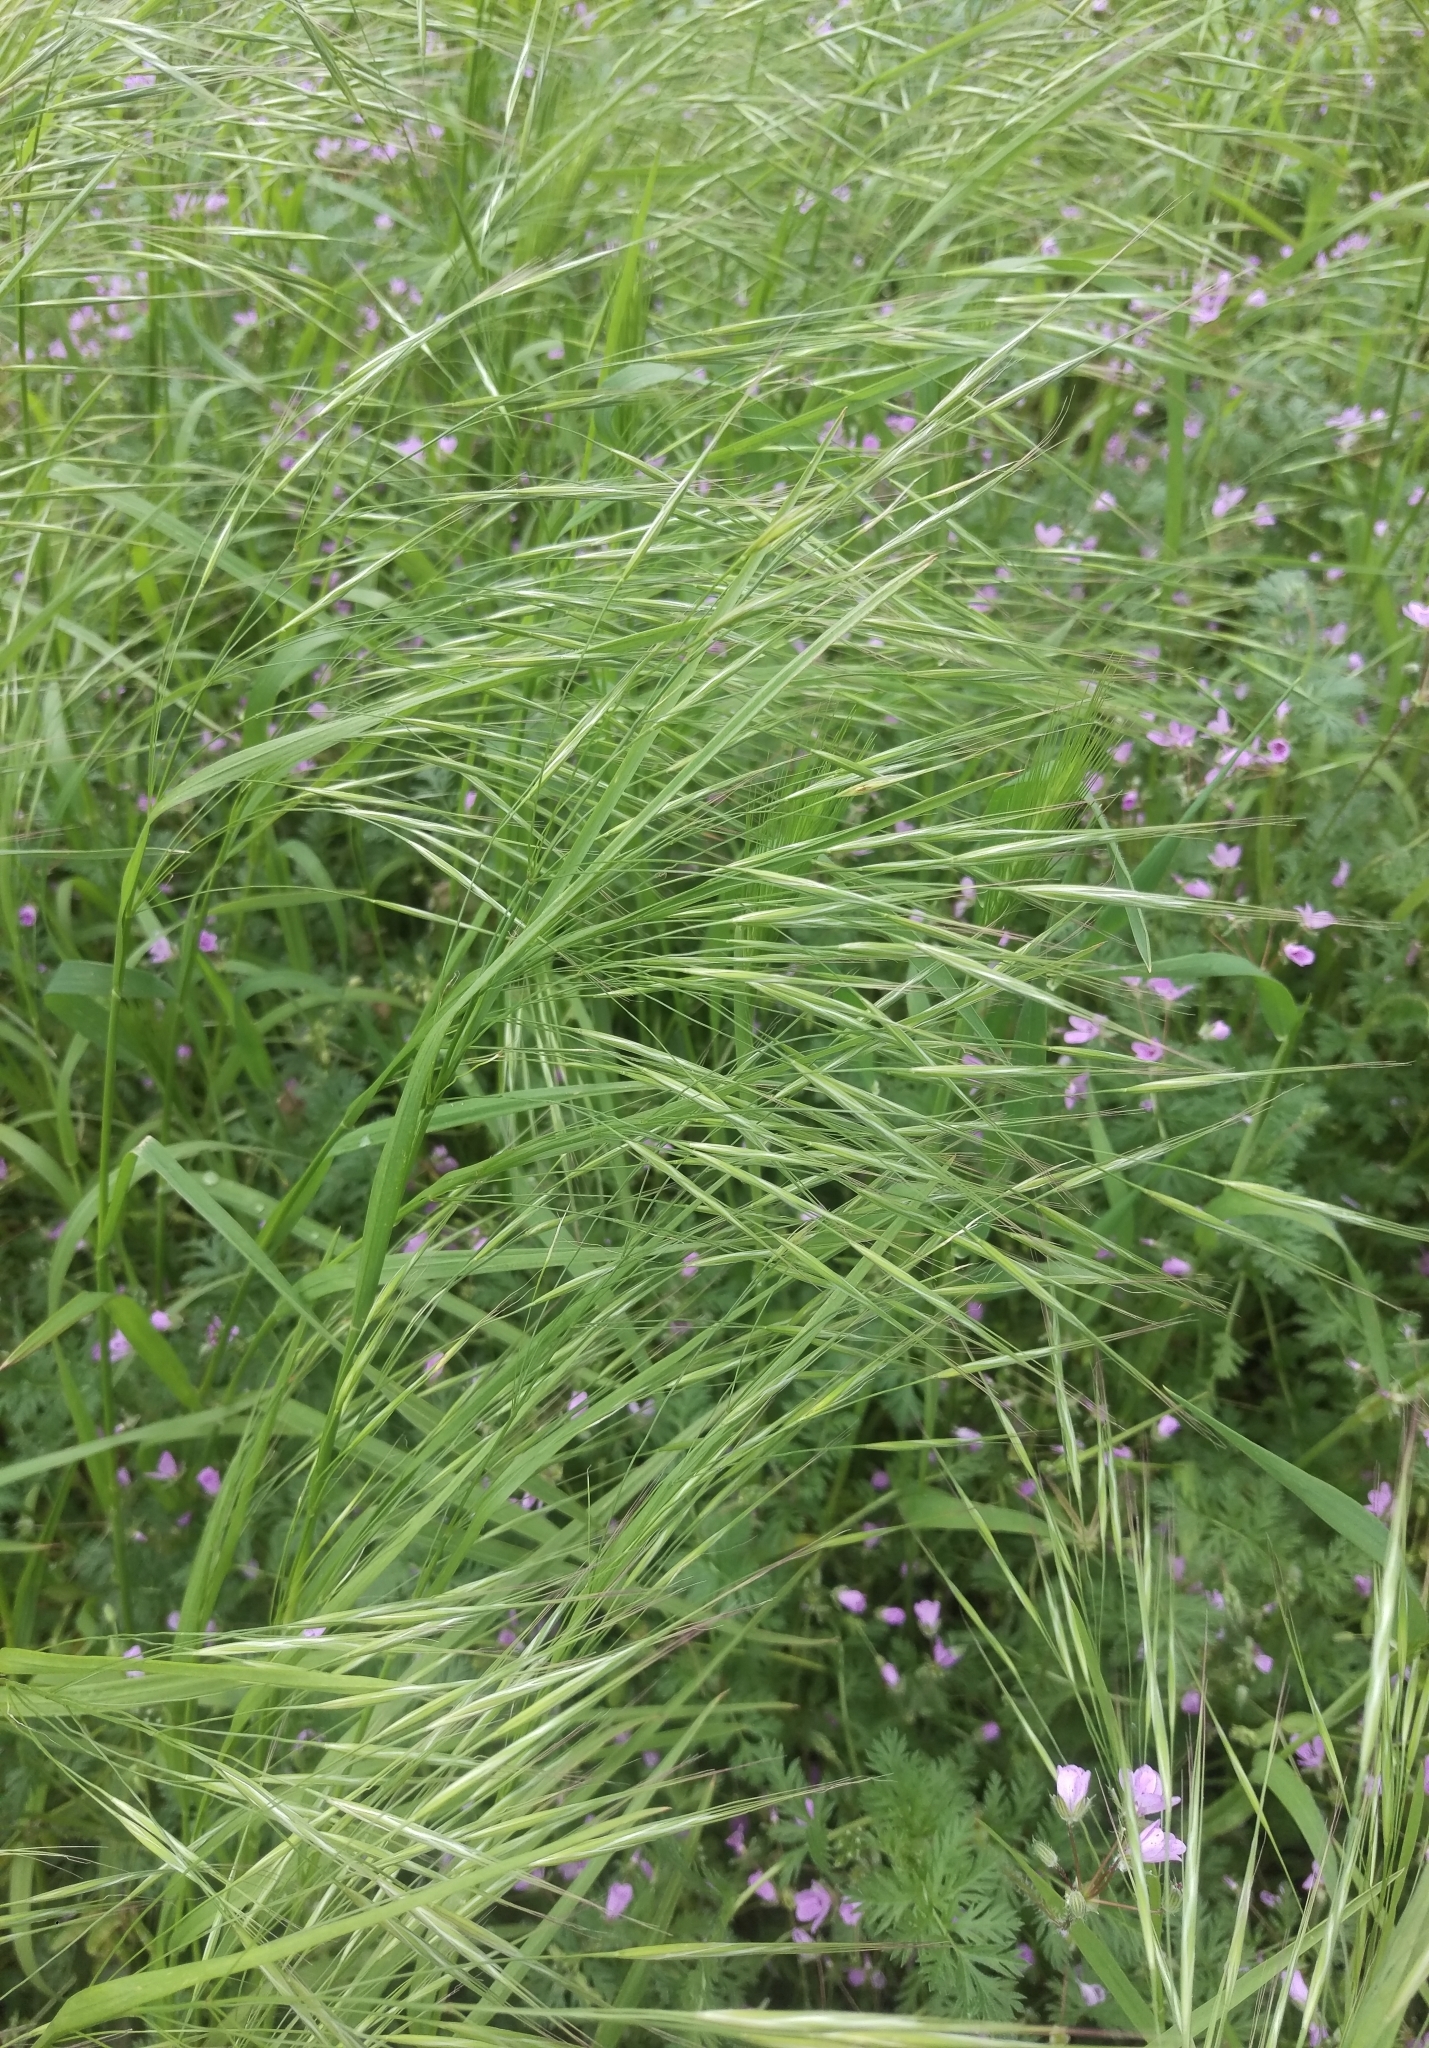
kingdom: Plantae
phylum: Tracheophyta
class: Liliopsida
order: Poales
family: Poaceae
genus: Bromus
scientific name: Bromus sterilis
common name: Poverty brome
